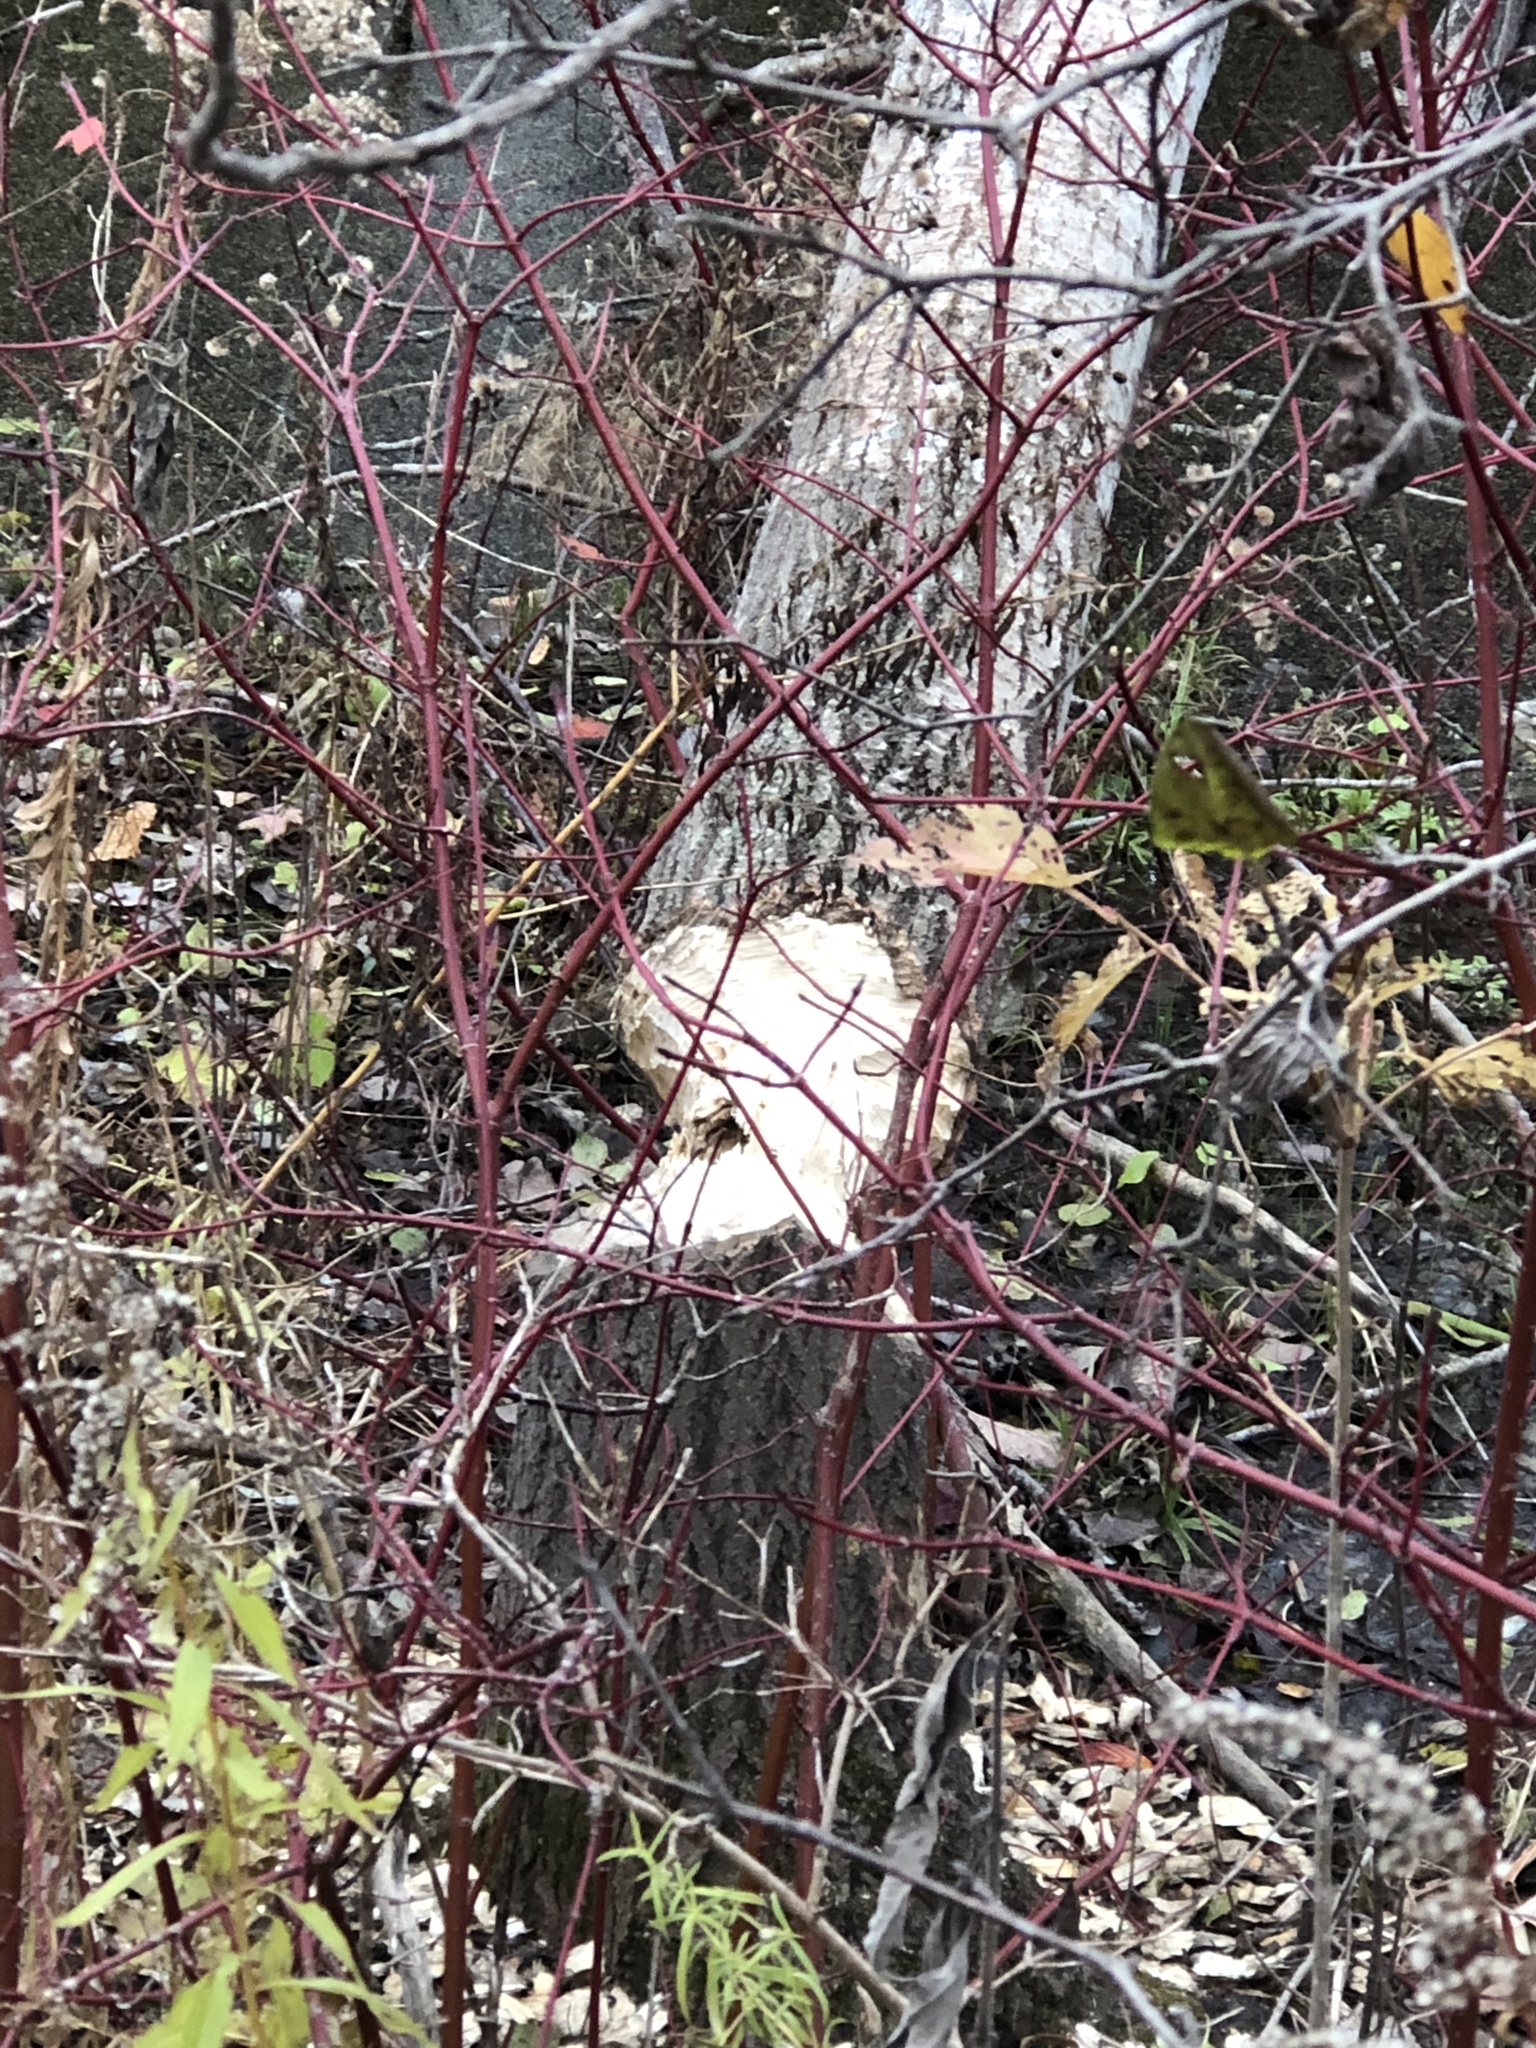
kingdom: Animalia
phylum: Chordata
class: Mammalia
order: Rodentia
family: Castoridae
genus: Castor
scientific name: Castor canadensis
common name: American beaver
